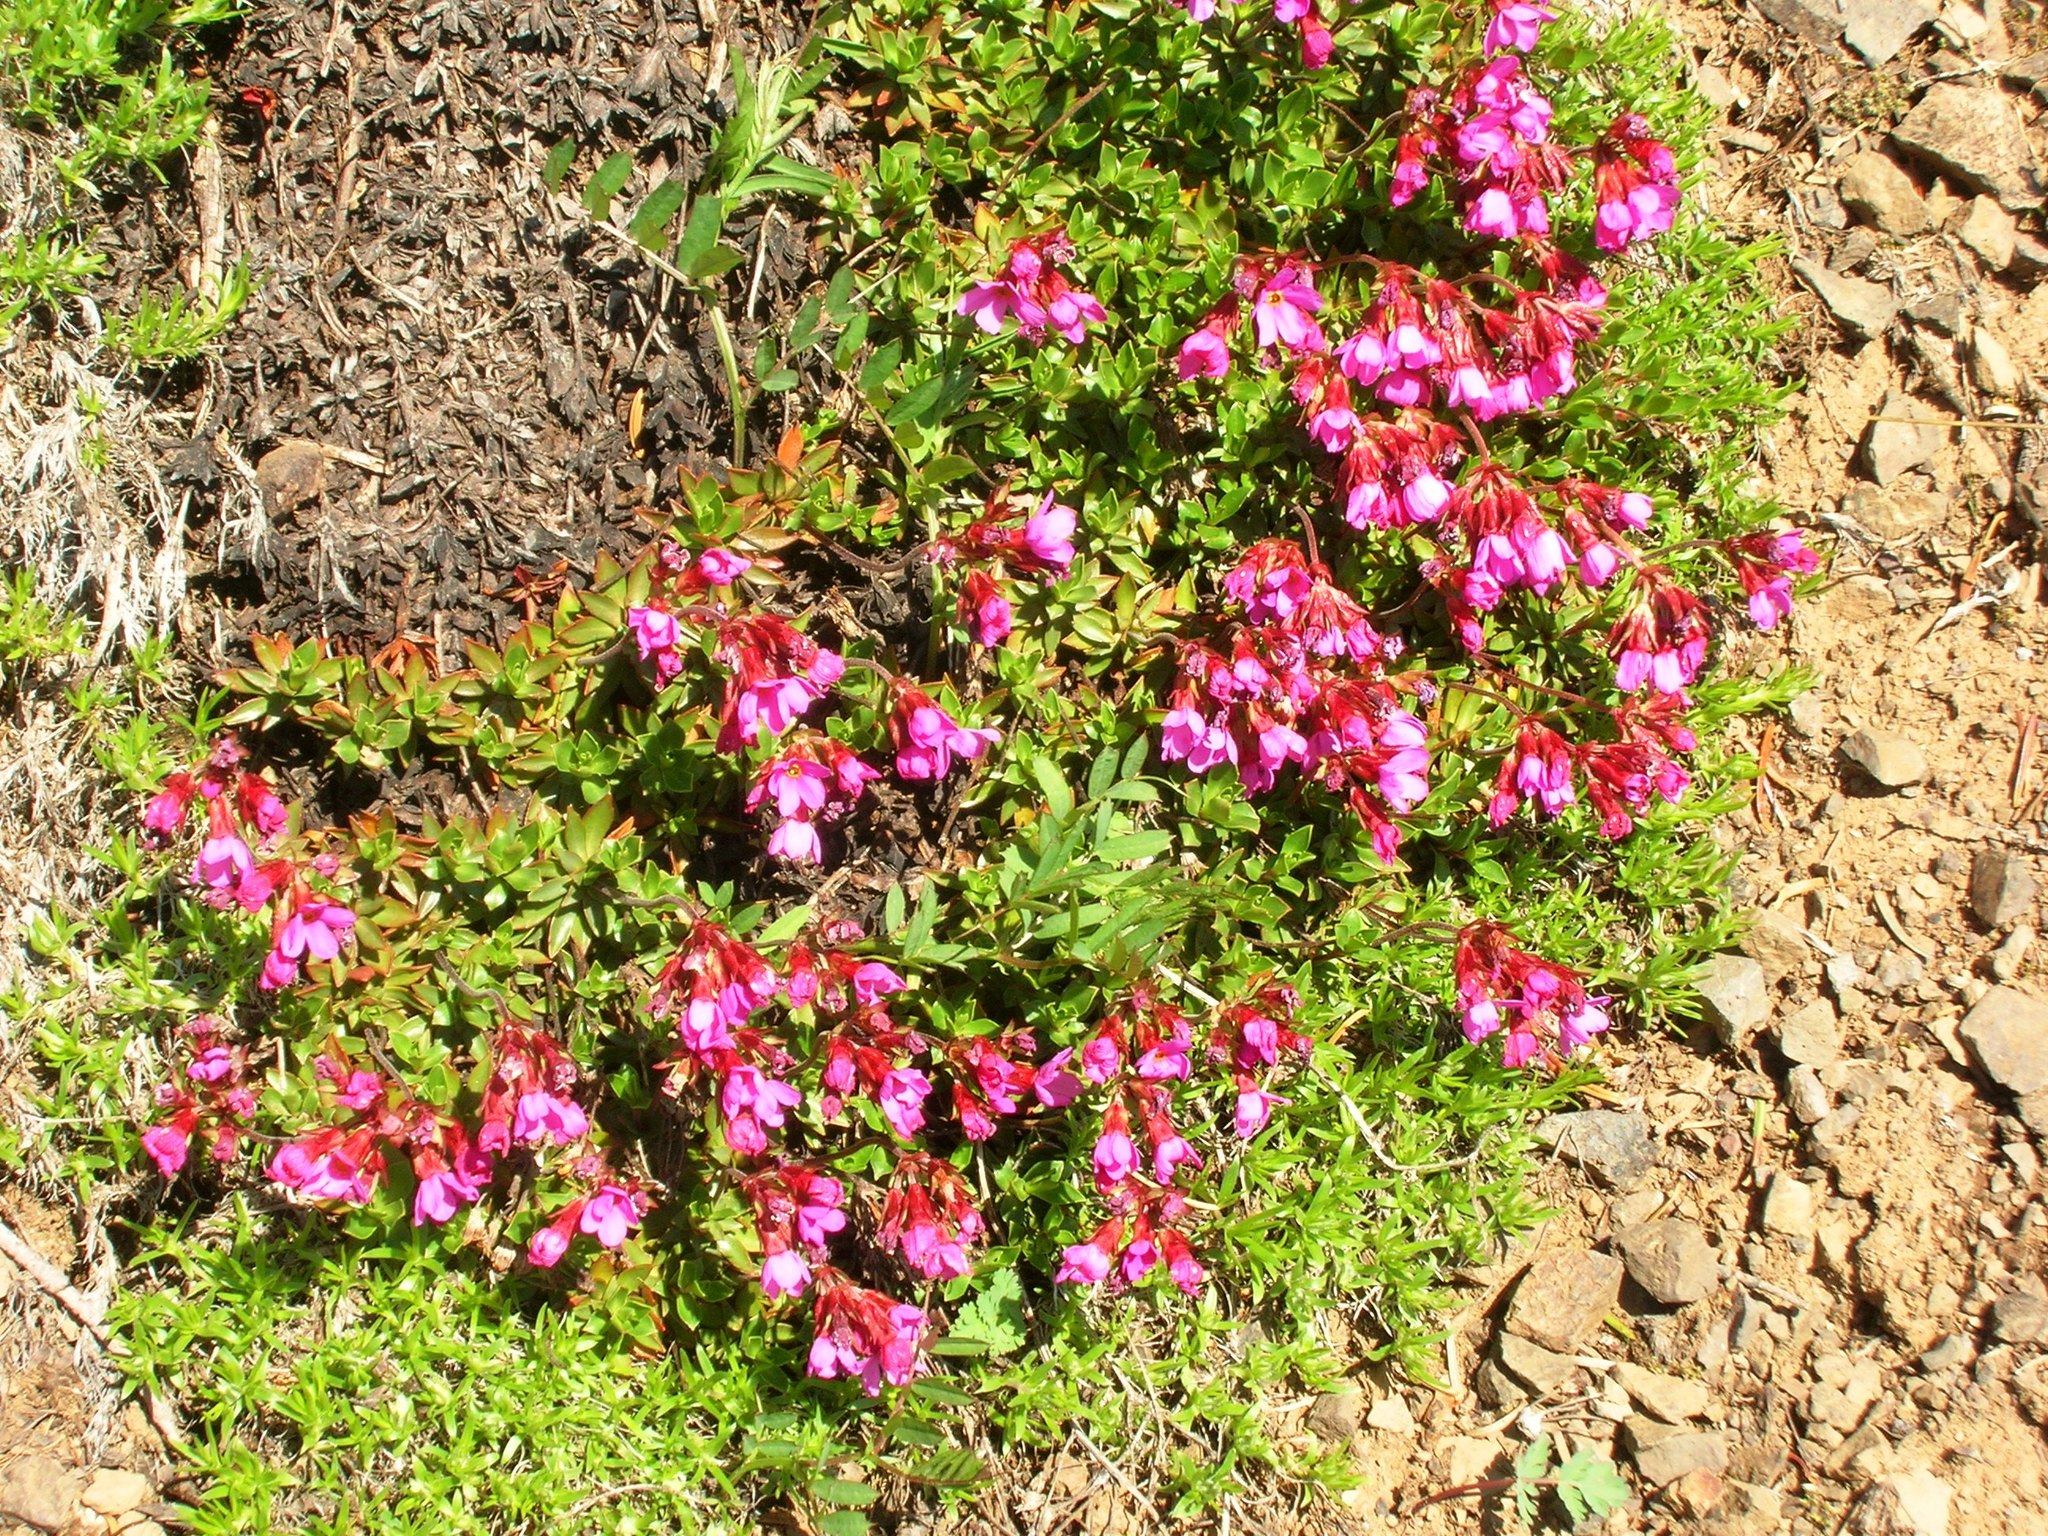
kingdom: Plantae
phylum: Tracheophyta
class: Magnoliopsida
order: Ericales
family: Primulaceae
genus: Androsace
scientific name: Androsace laevigata
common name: Cliff dwarf-primrose
